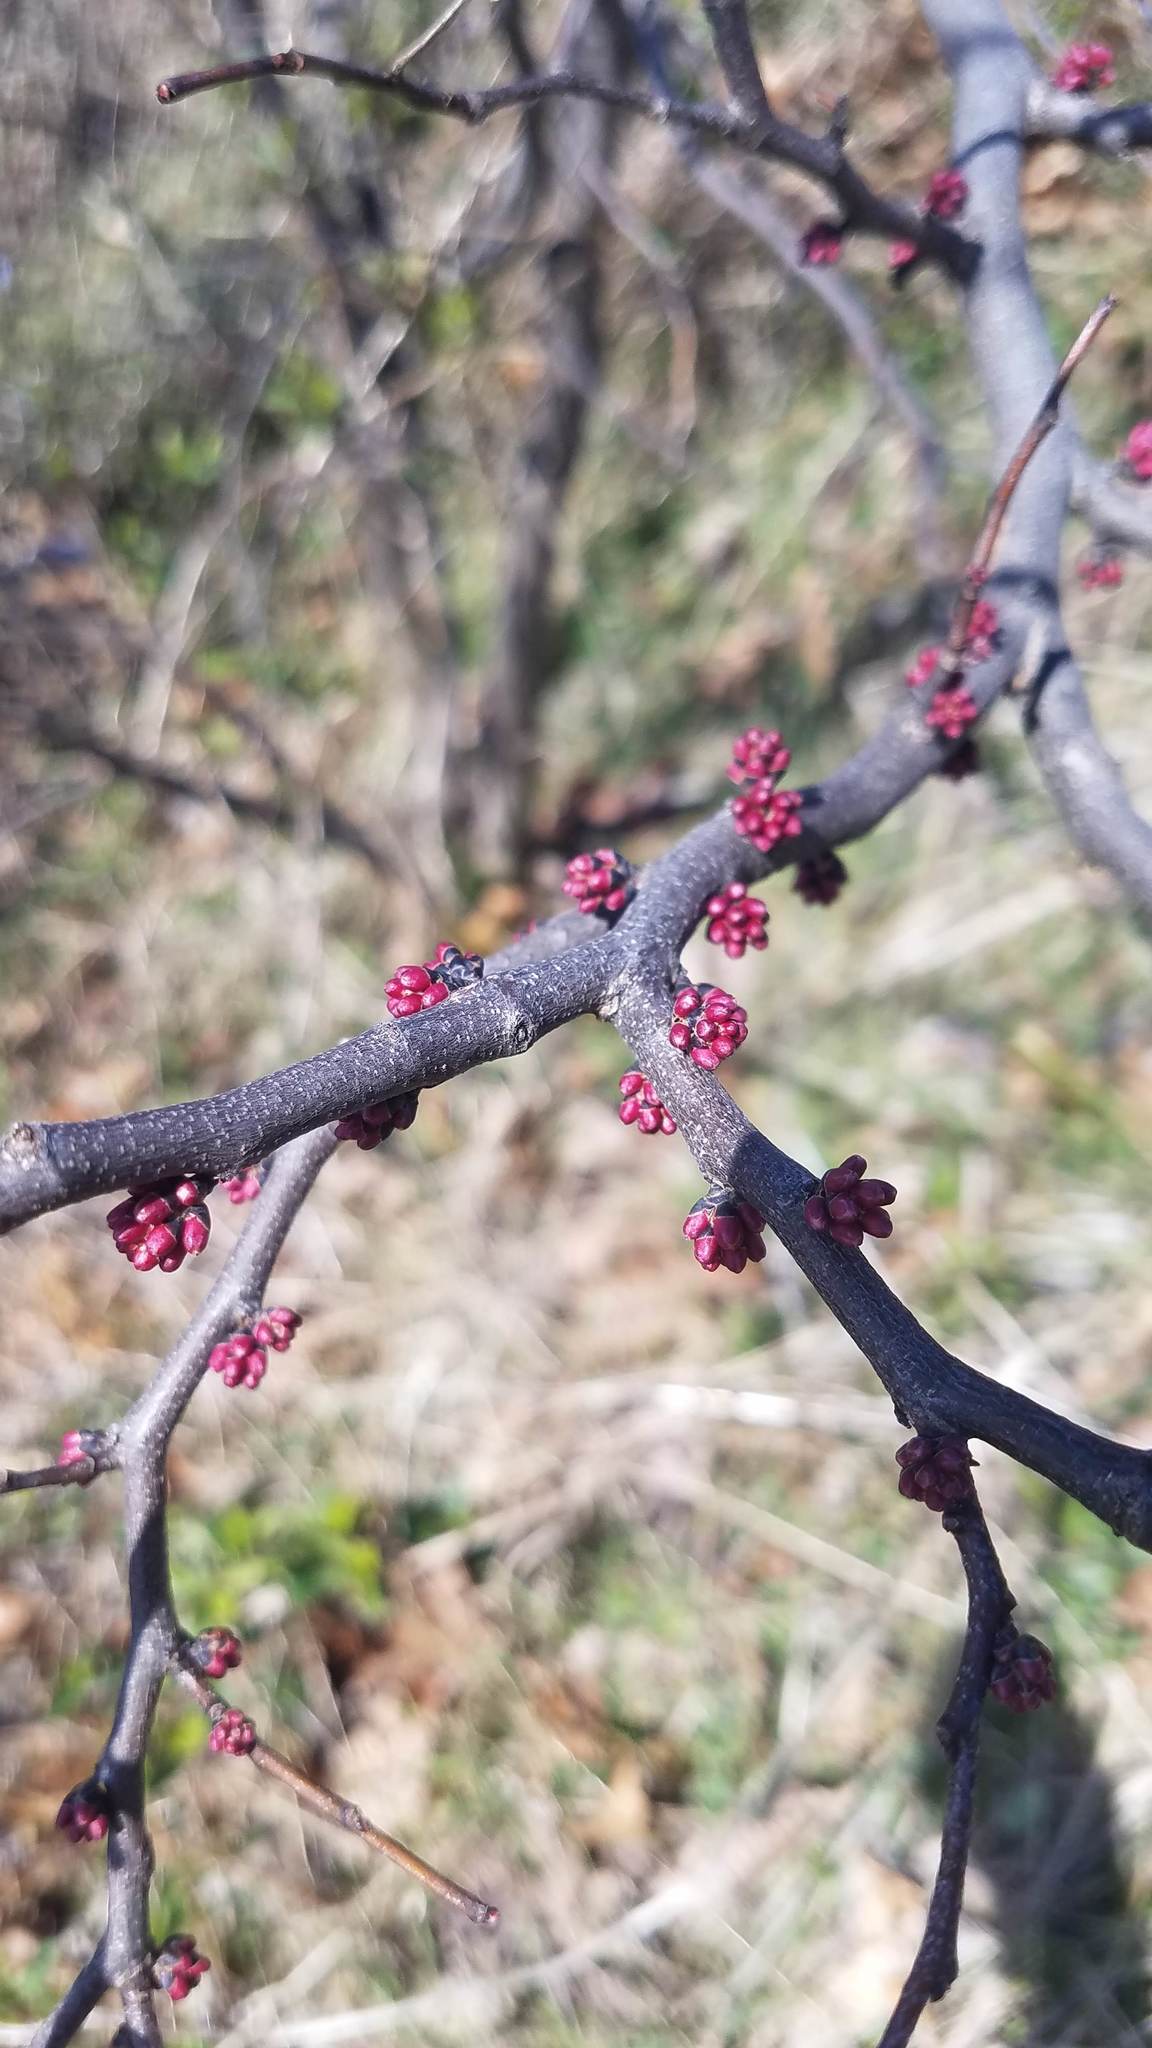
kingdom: Plantae
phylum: Tracheophyta
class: Magnoliopsida
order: Fabales
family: Fabaceae
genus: Cercis
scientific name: Cercis canadensis
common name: Eastern redbud
